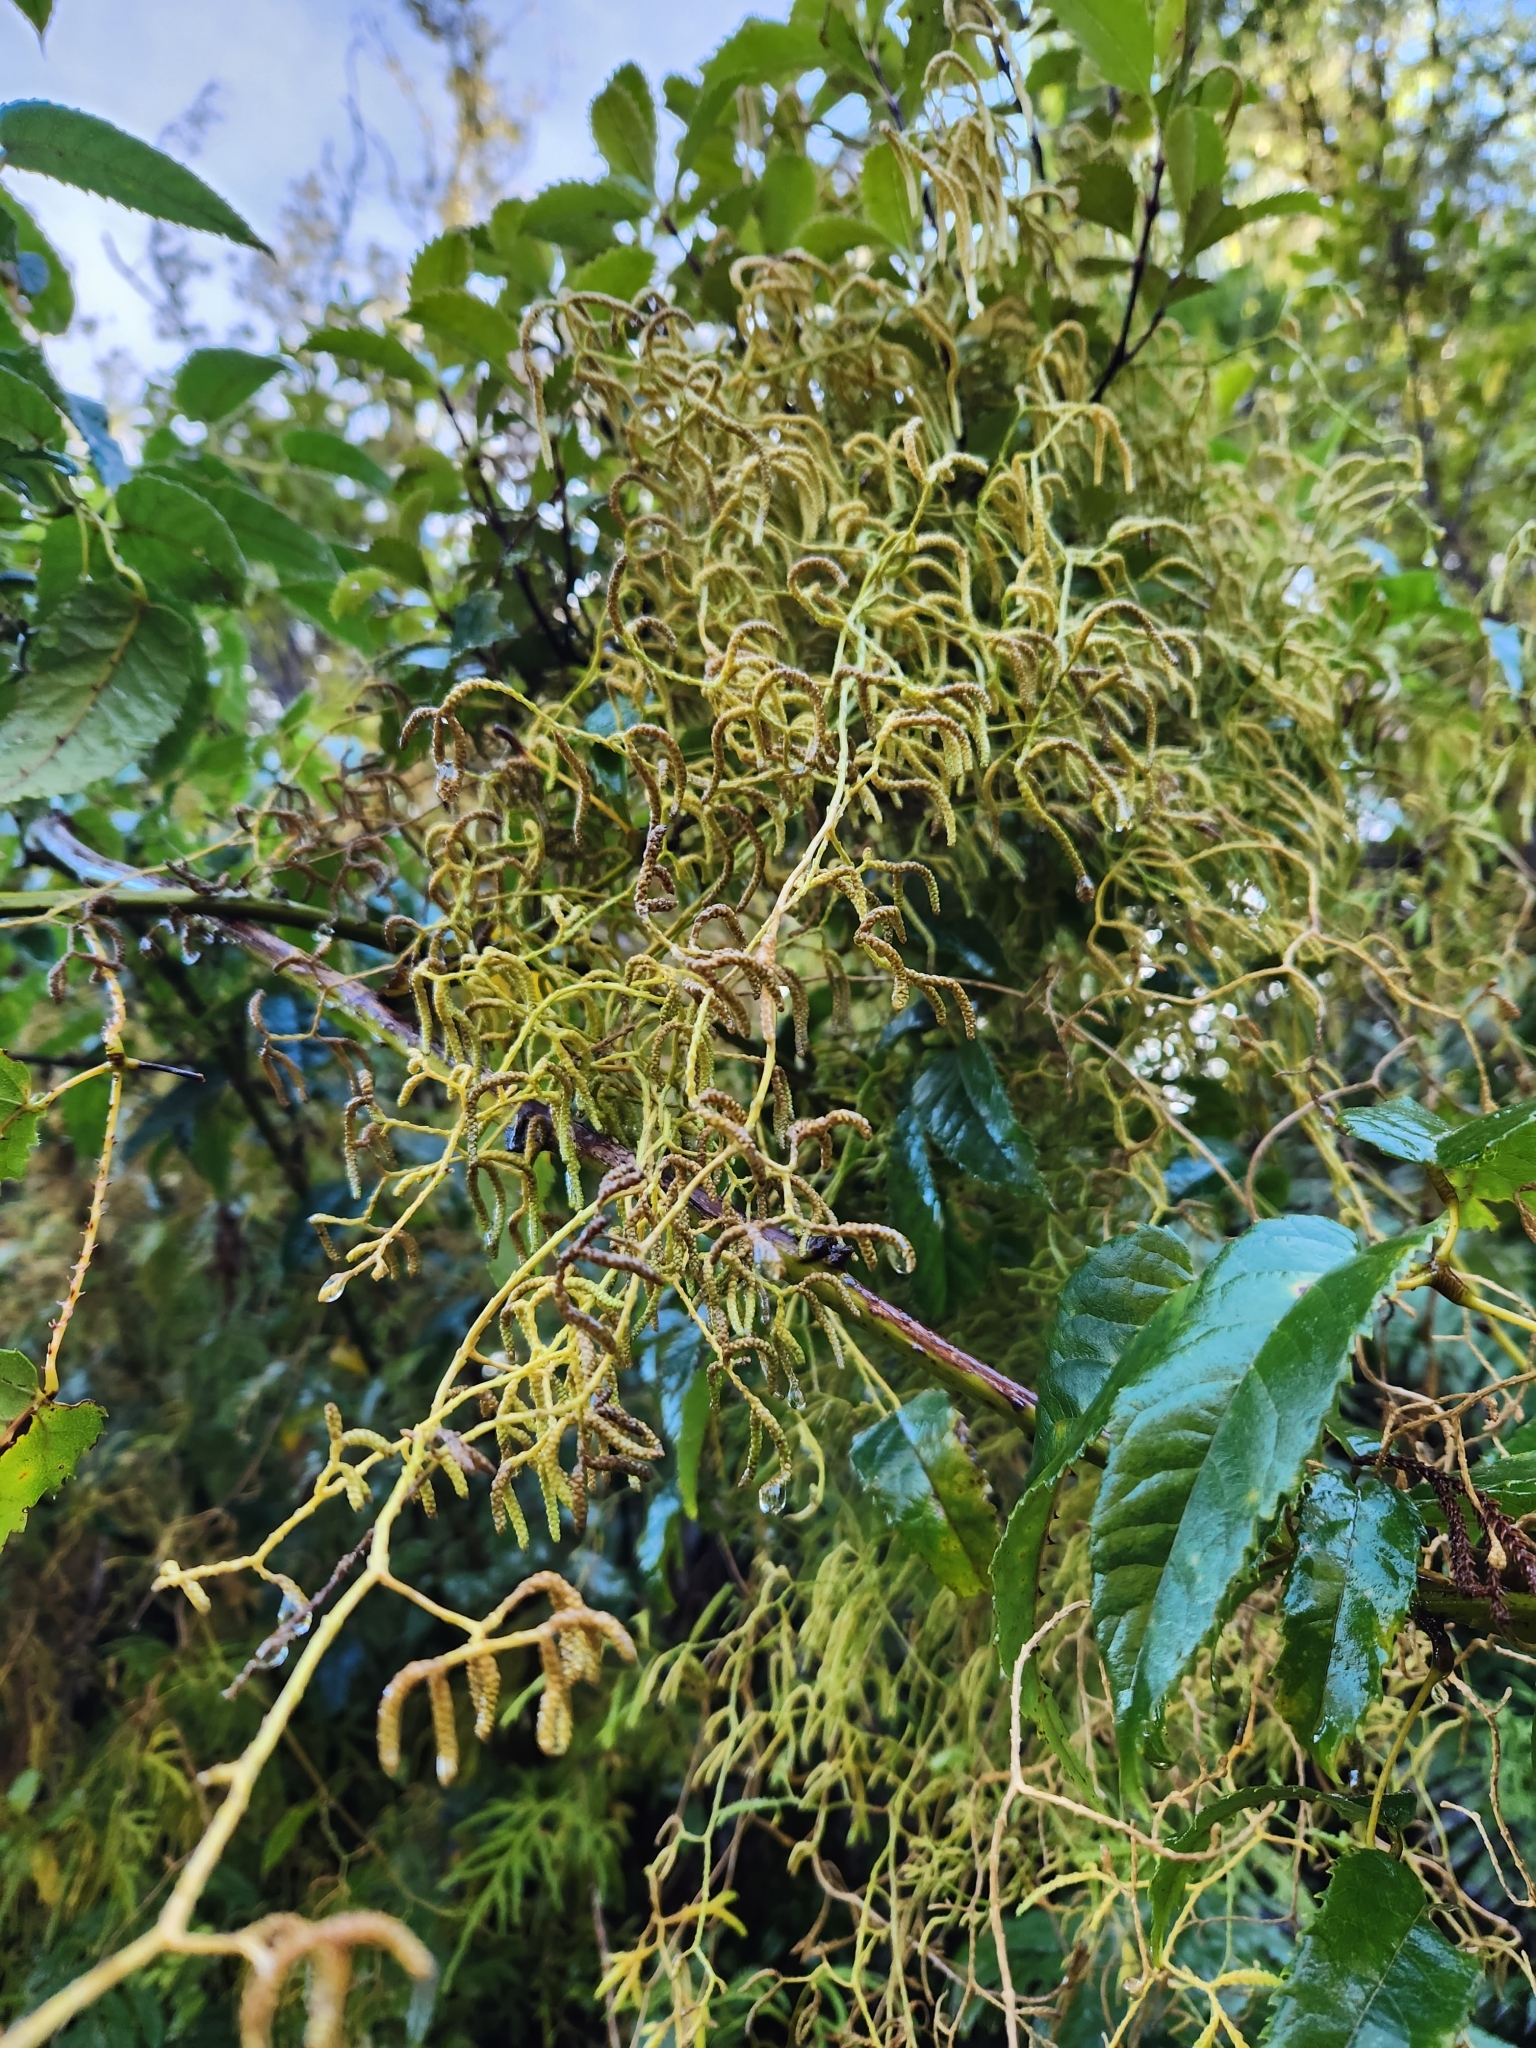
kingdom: Plantae
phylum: Tracheophyta
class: Lycopodiopsida
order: Lycopodiales
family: Lycopodiaceae
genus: Lycopodium
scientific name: Lycopodium volubile
